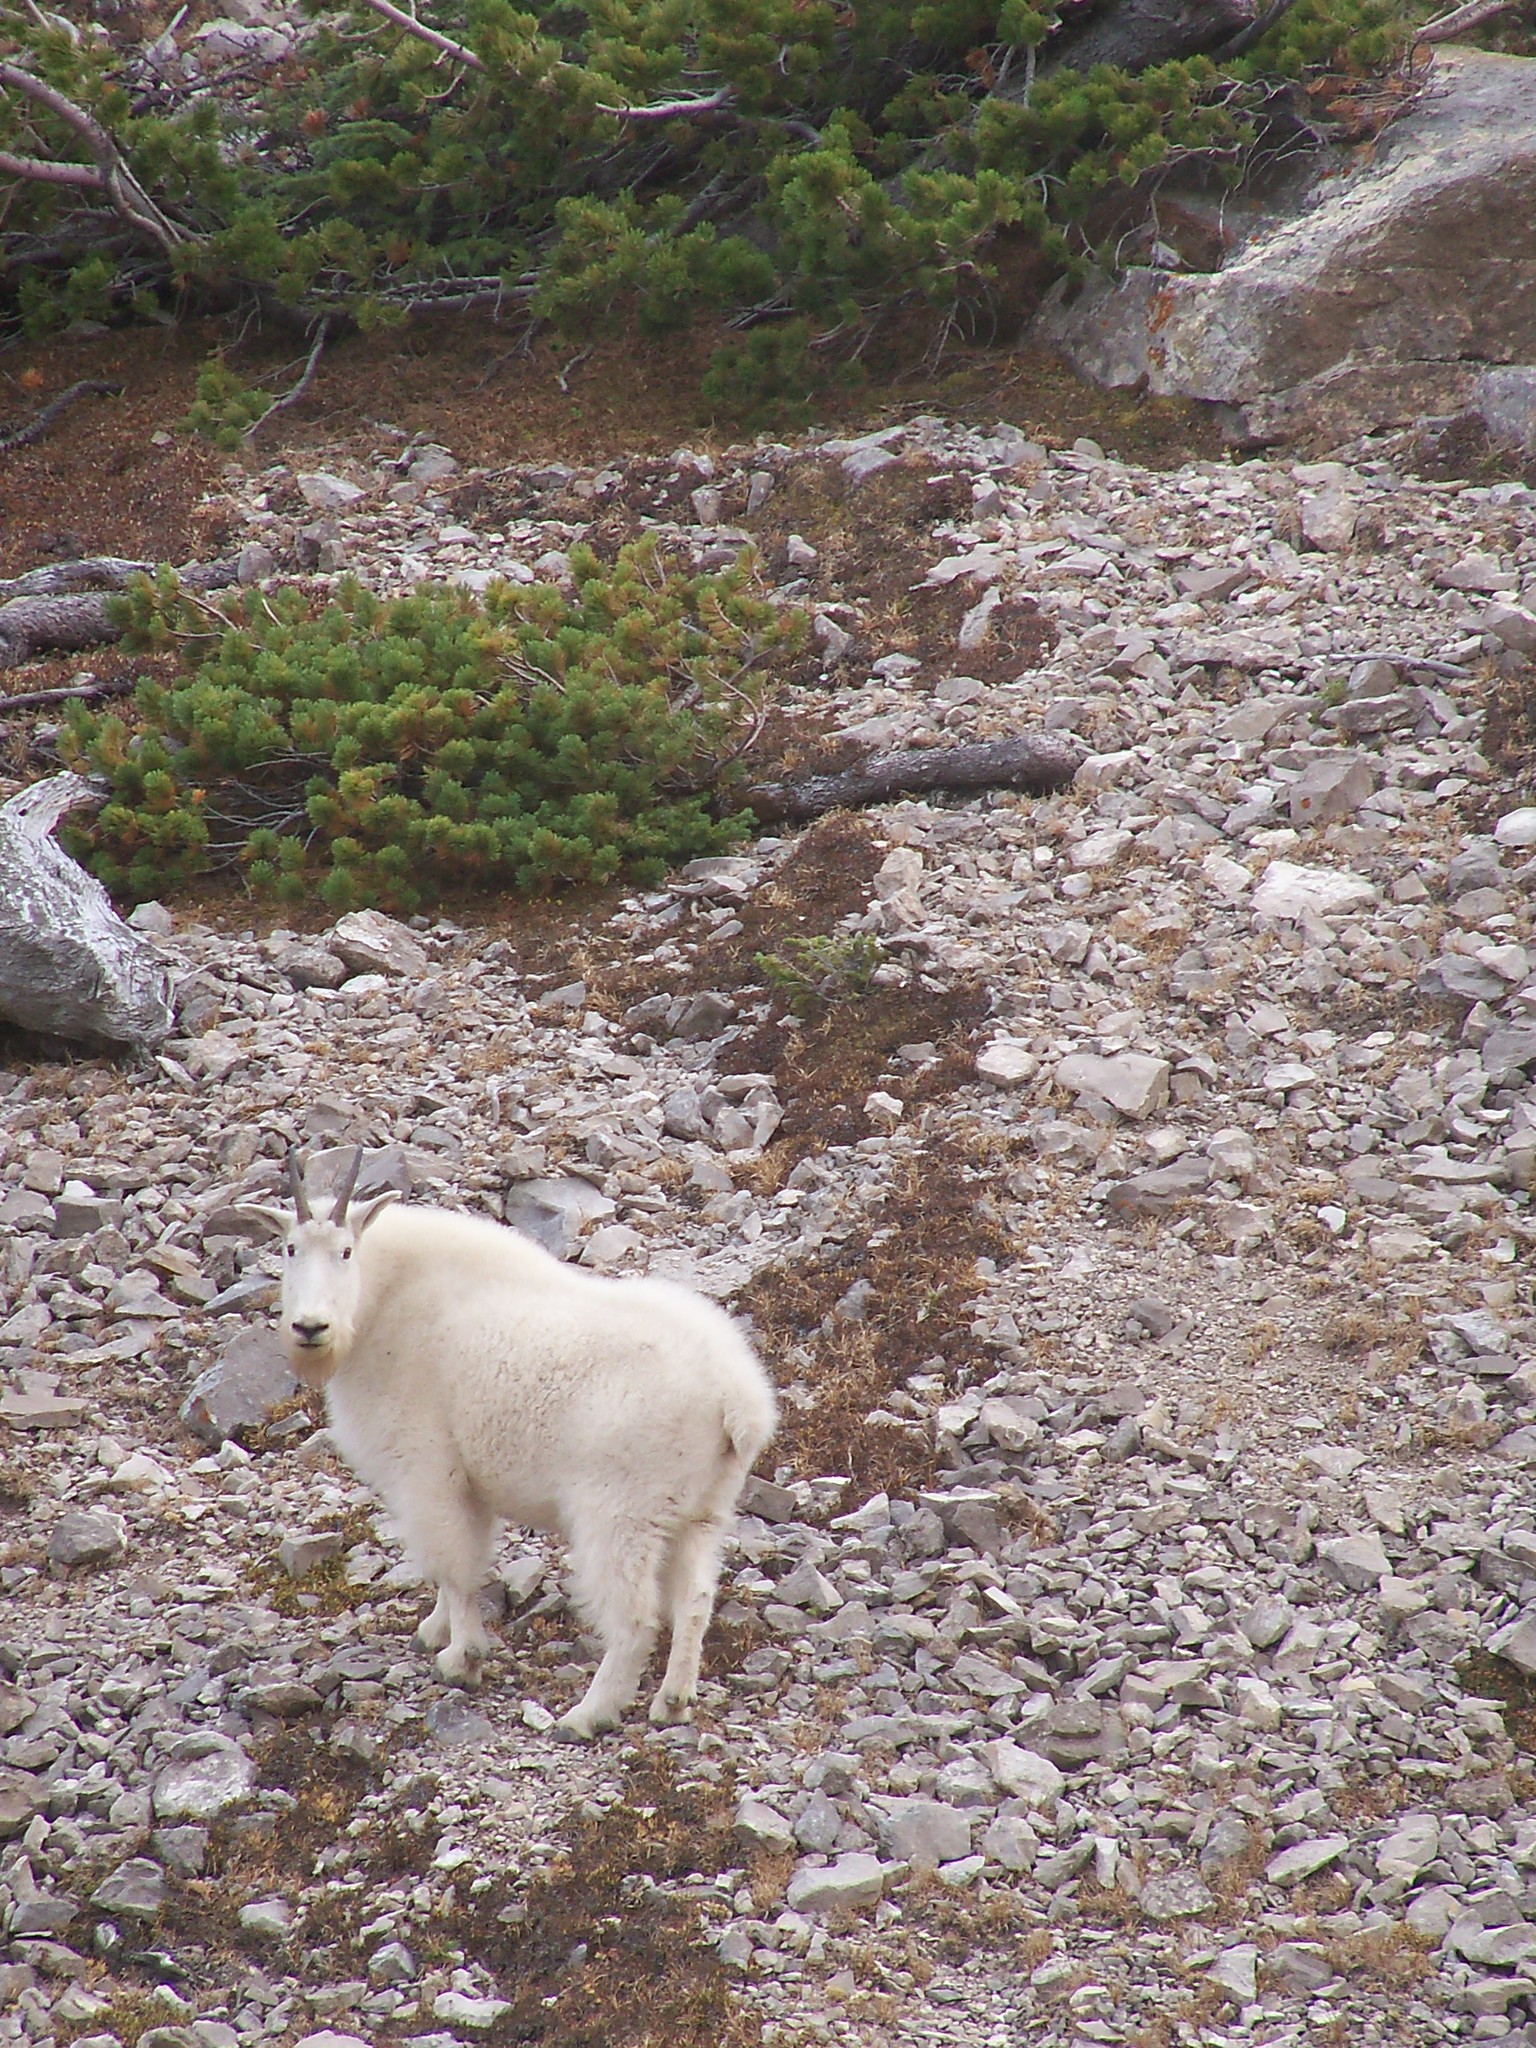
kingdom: Animalia
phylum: Chordata
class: Mammalia
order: Artiodactyla
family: Bovidae
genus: Oreamnos
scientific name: Oreamnos americanus
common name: Mountain goat
